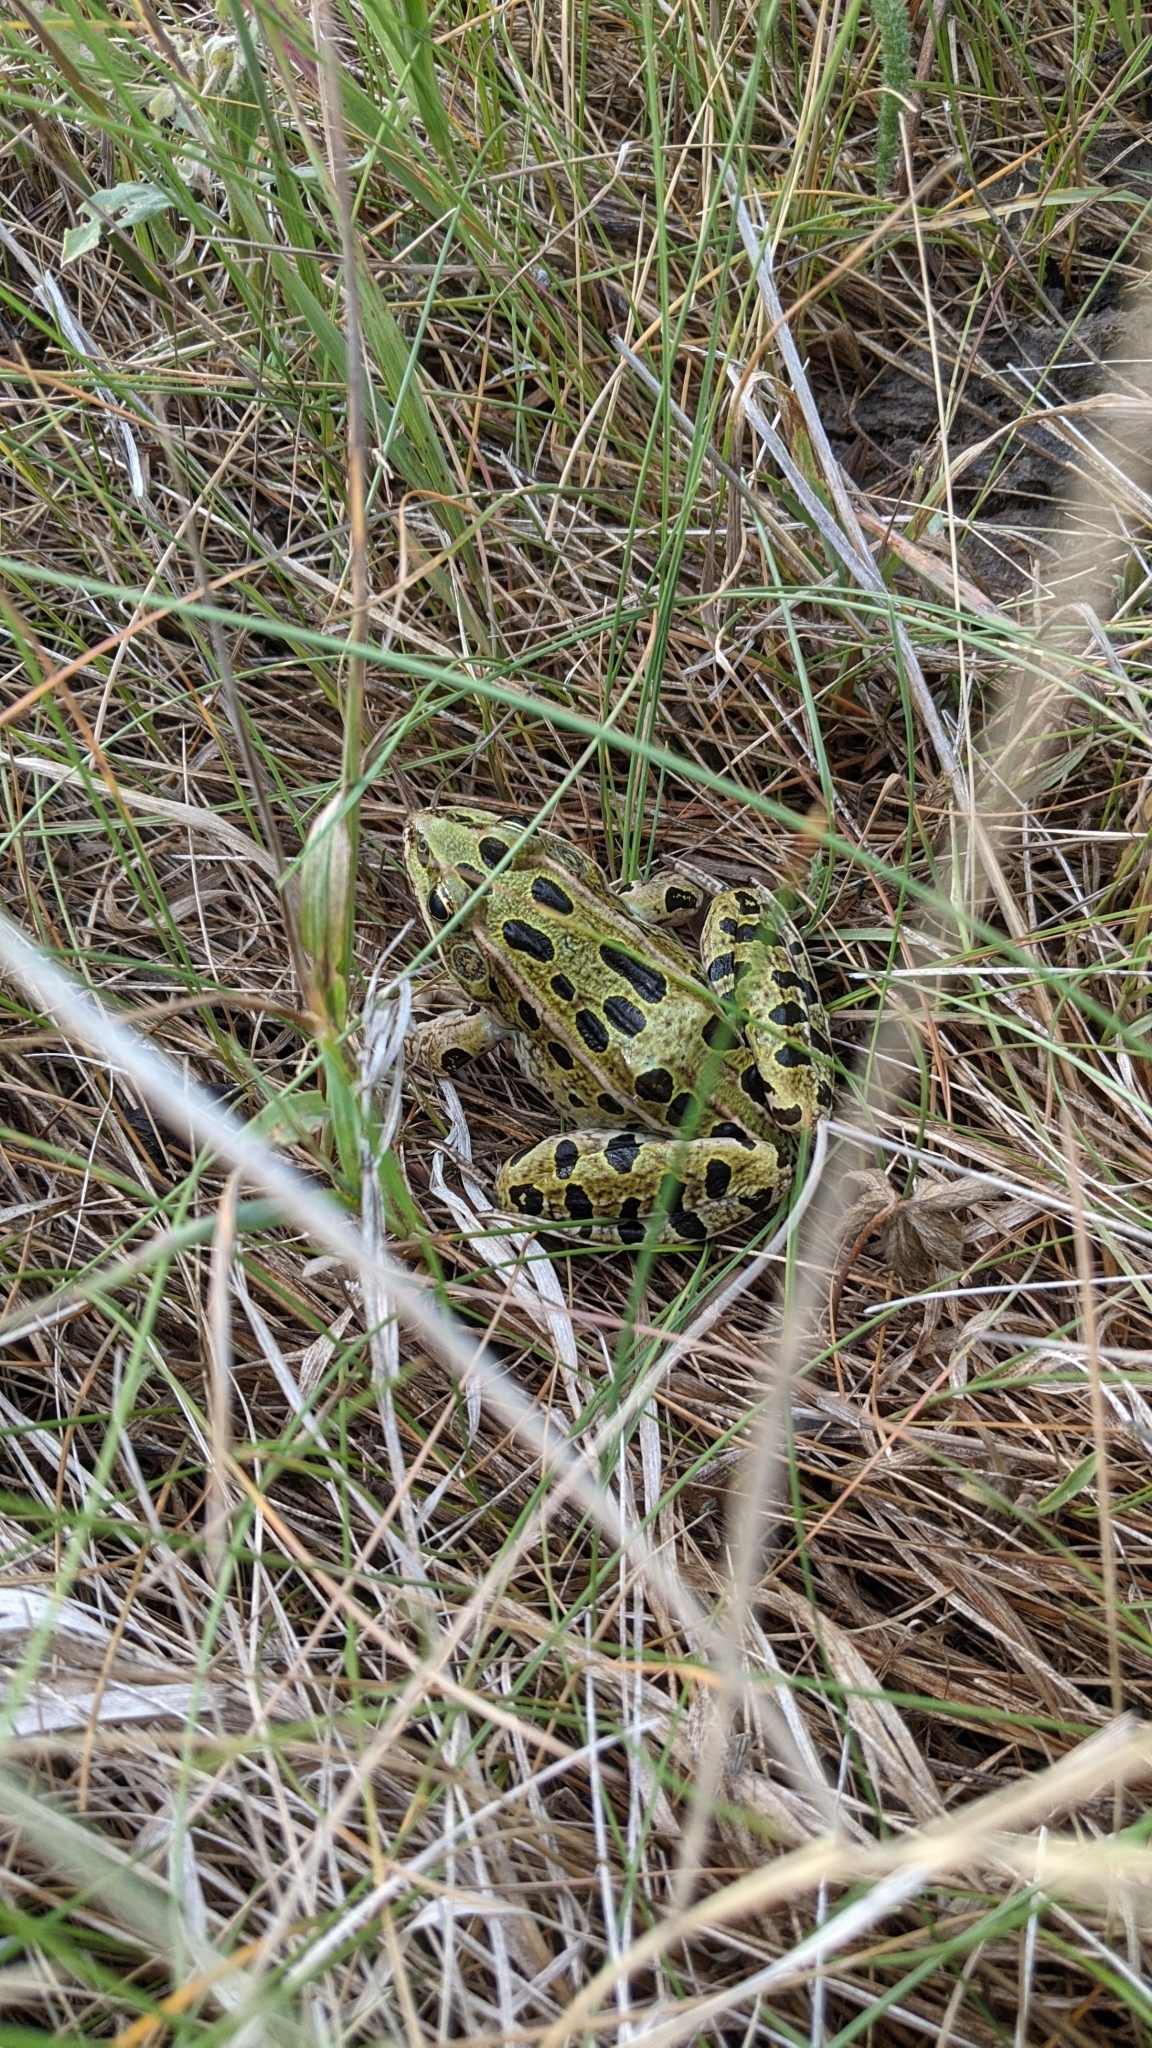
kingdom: Animalia
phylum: Chordata
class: Amphibia
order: Anura
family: Ranidae
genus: Lithobates
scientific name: Lithobates pipiens
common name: Northern leopard frog
